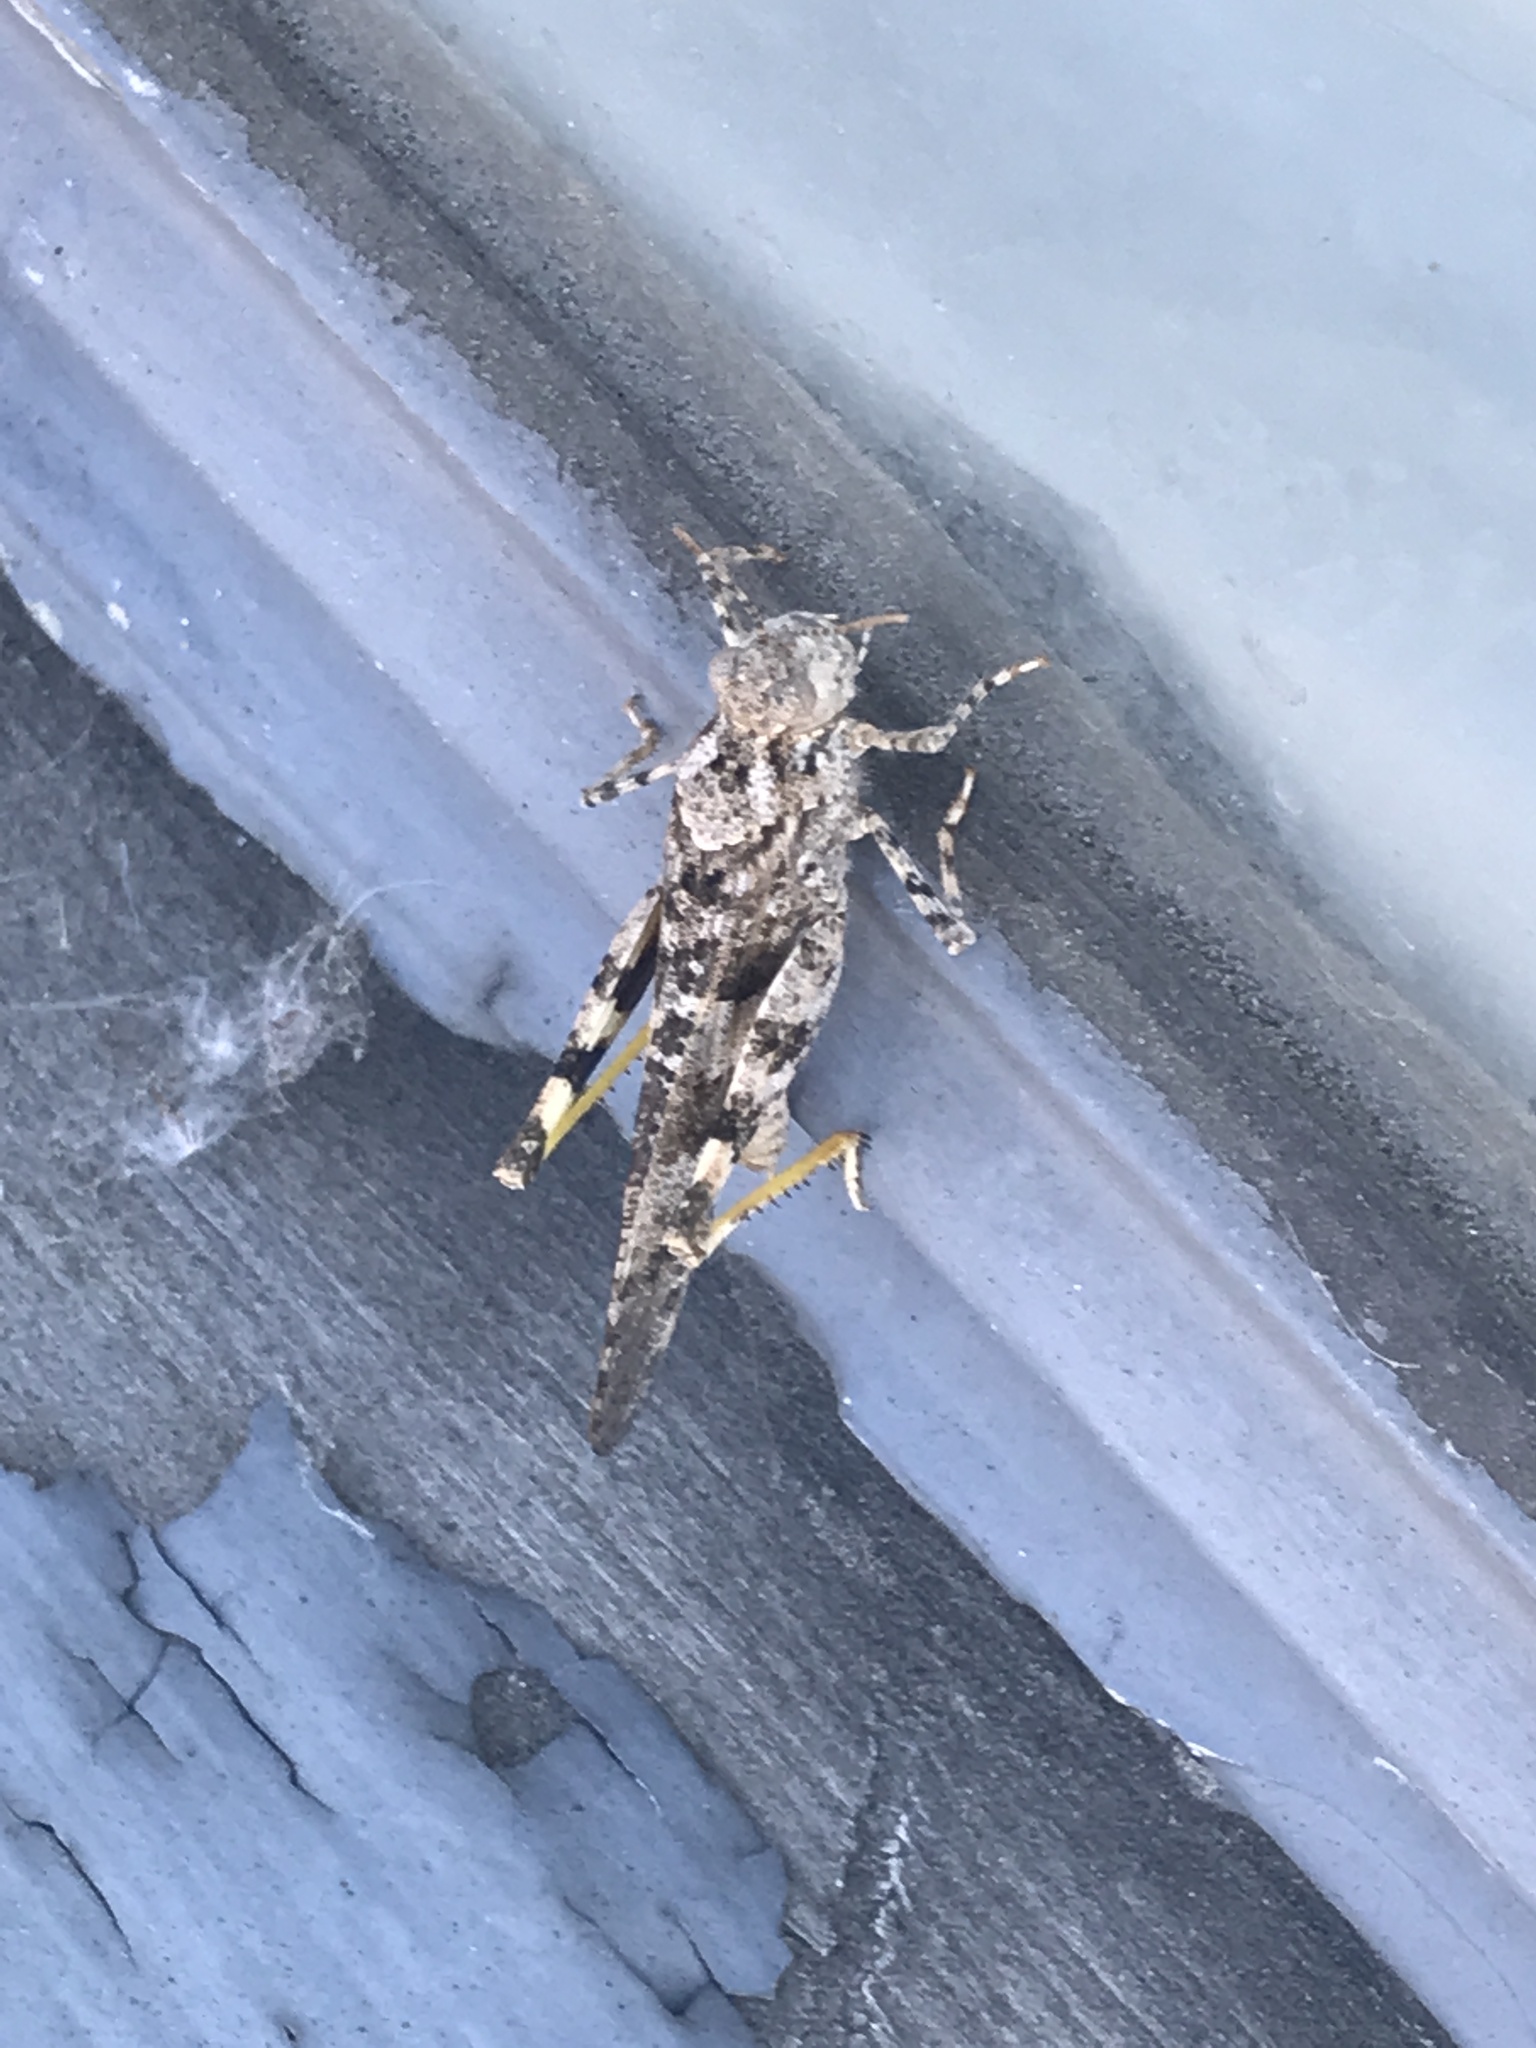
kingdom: Animalia
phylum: Arthropoda
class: Insecta
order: Orthoptera
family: Acrididae
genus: Trimerotropis
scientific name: Trimerotropis pallidipennis
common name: Pallid-winged grasshopper
